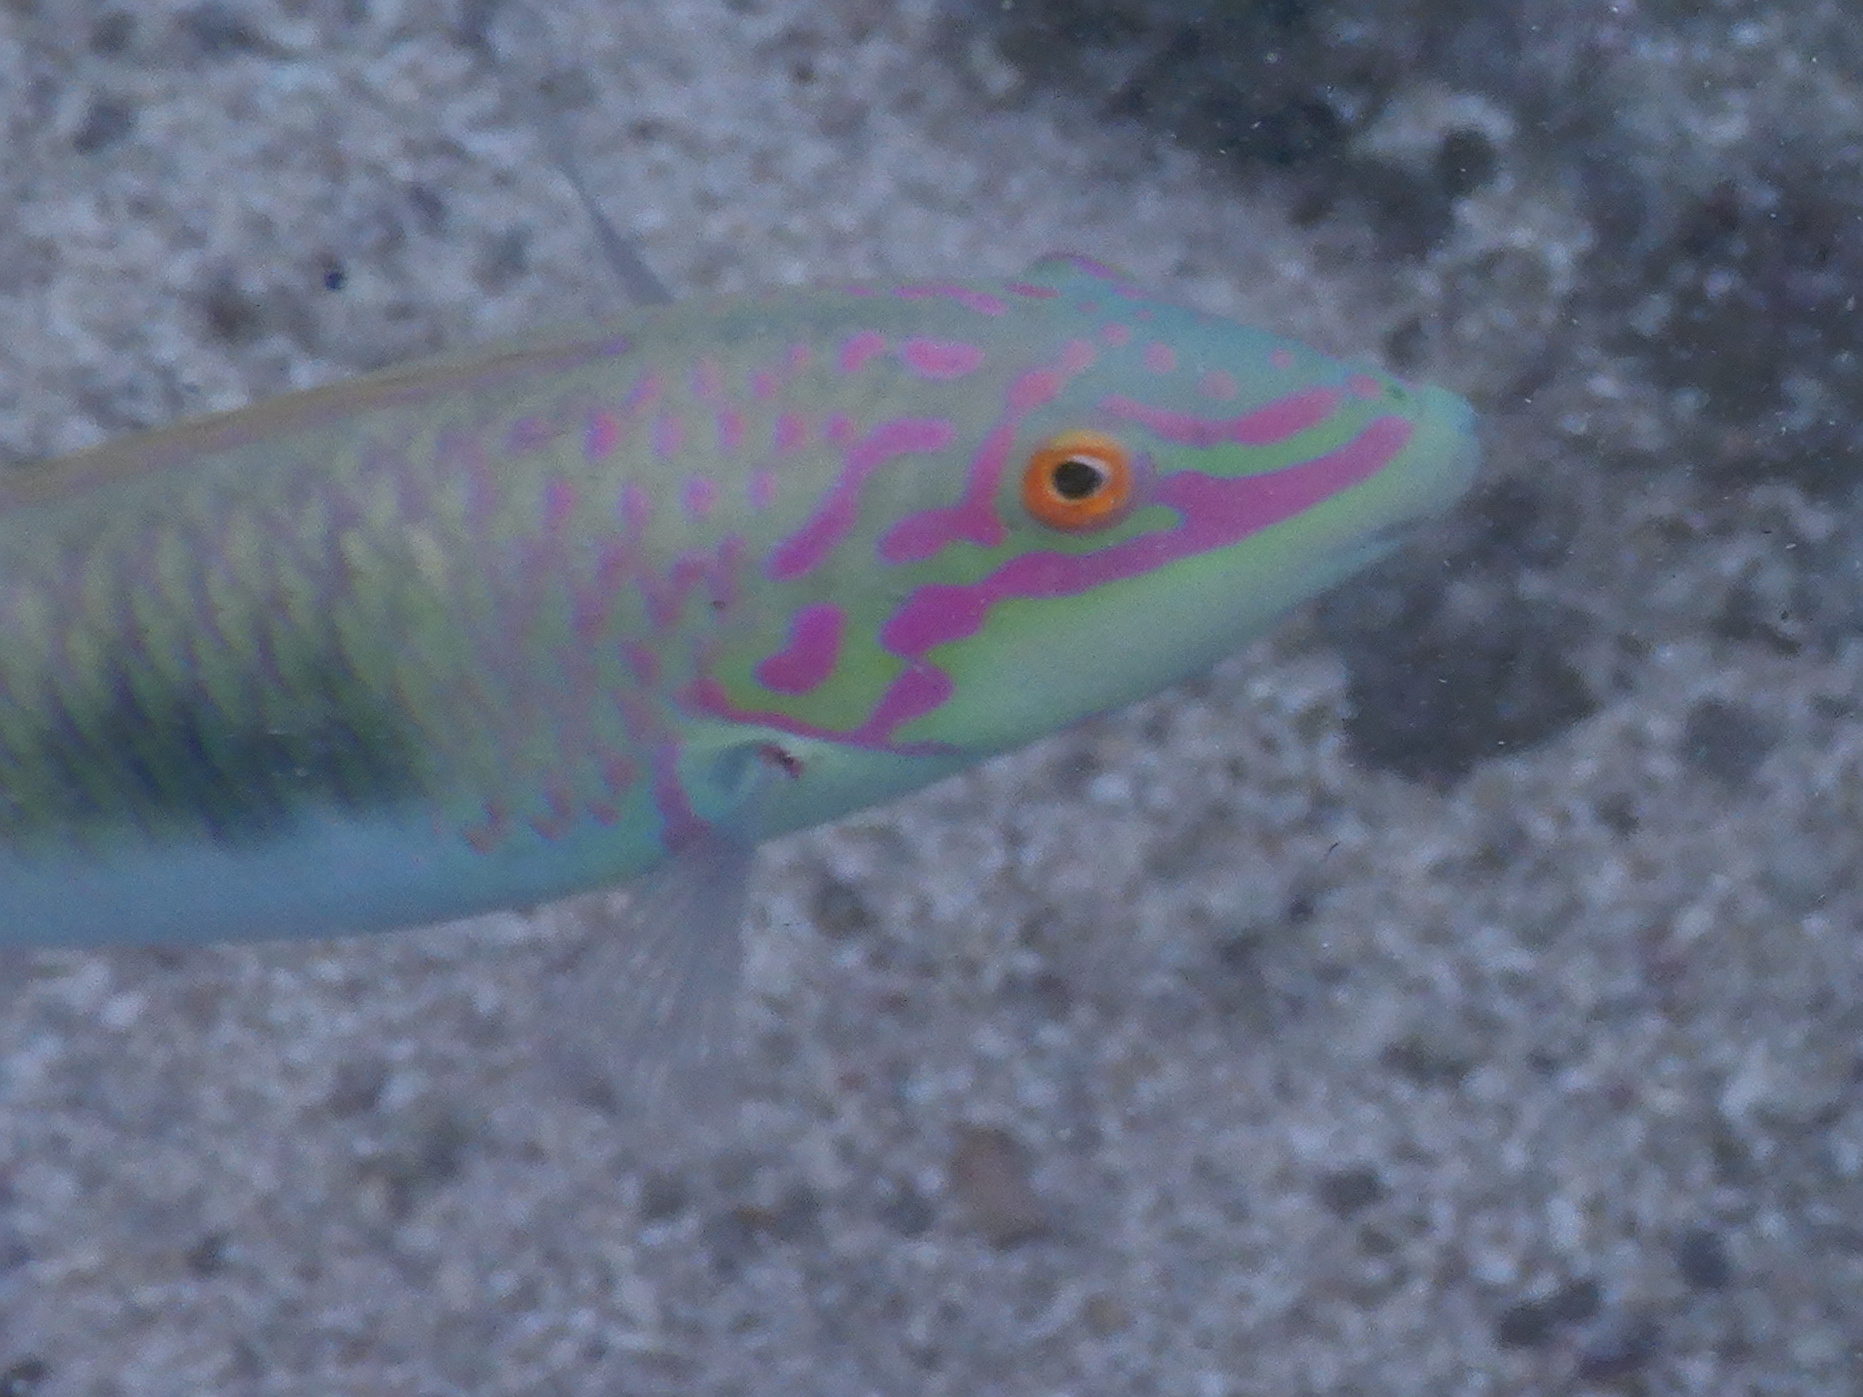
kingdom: Animalia
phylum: Chordata
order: Perciformes
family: Labridae
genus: Halichoeres
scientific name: Halichoeres trimaculatus
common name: Three-spot wrasse
